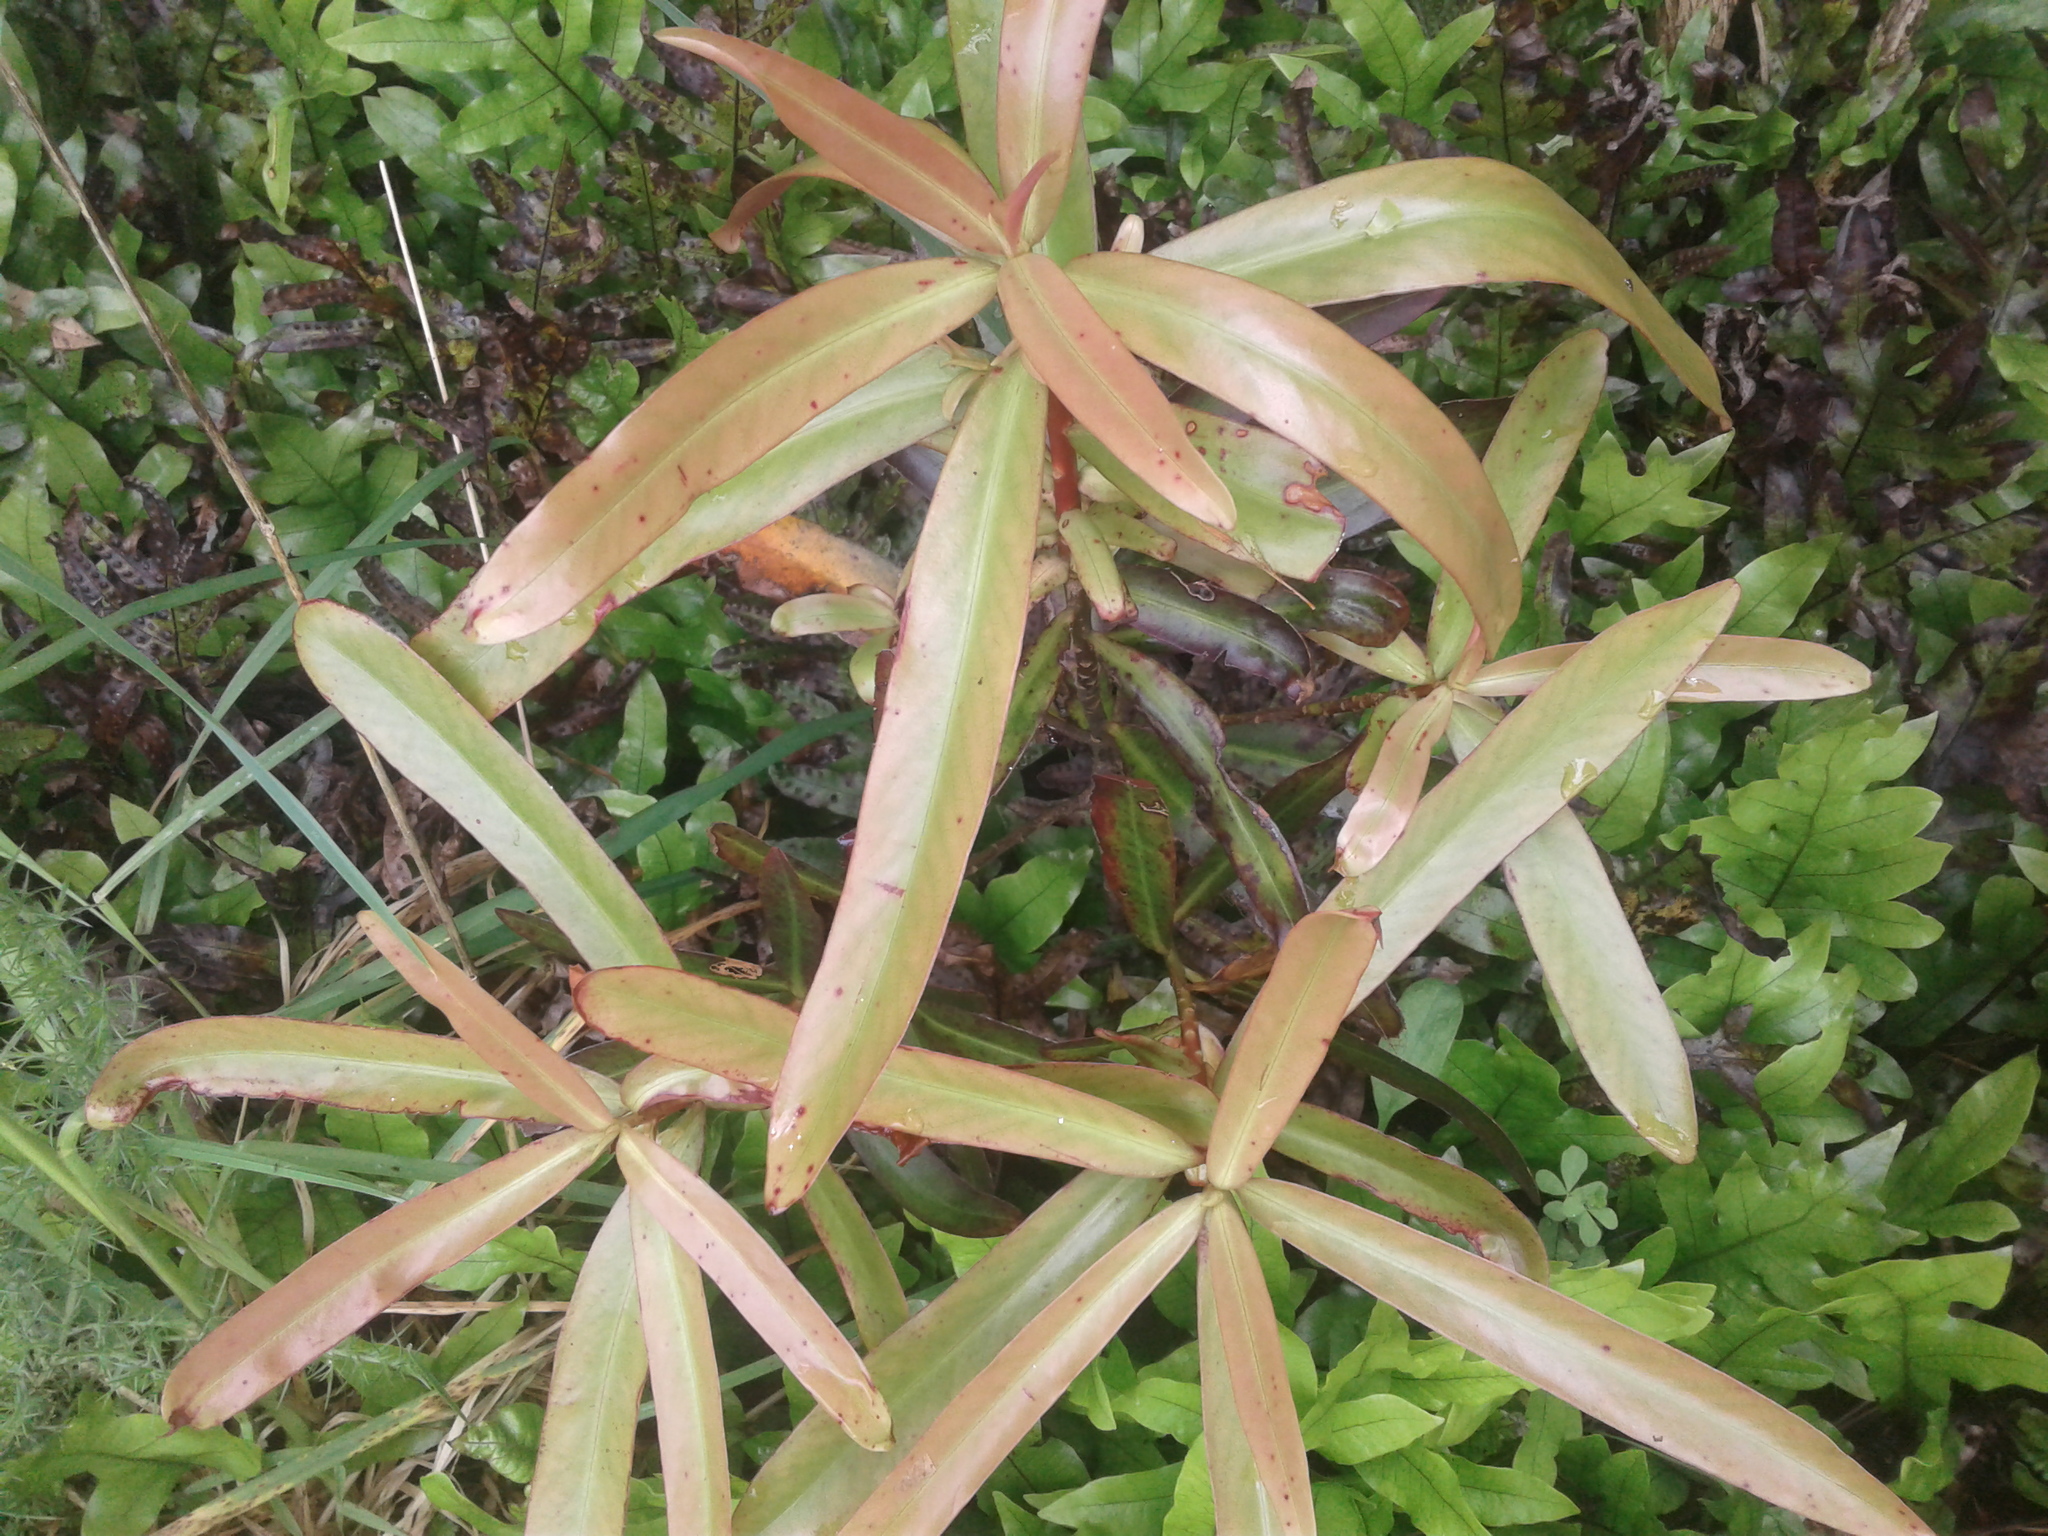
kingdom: Plantae
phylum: Tracheophyta
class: Magnoliopsida
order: Ericales
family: Primulaceae
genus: Myrsine
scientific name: Myrsine salicina
